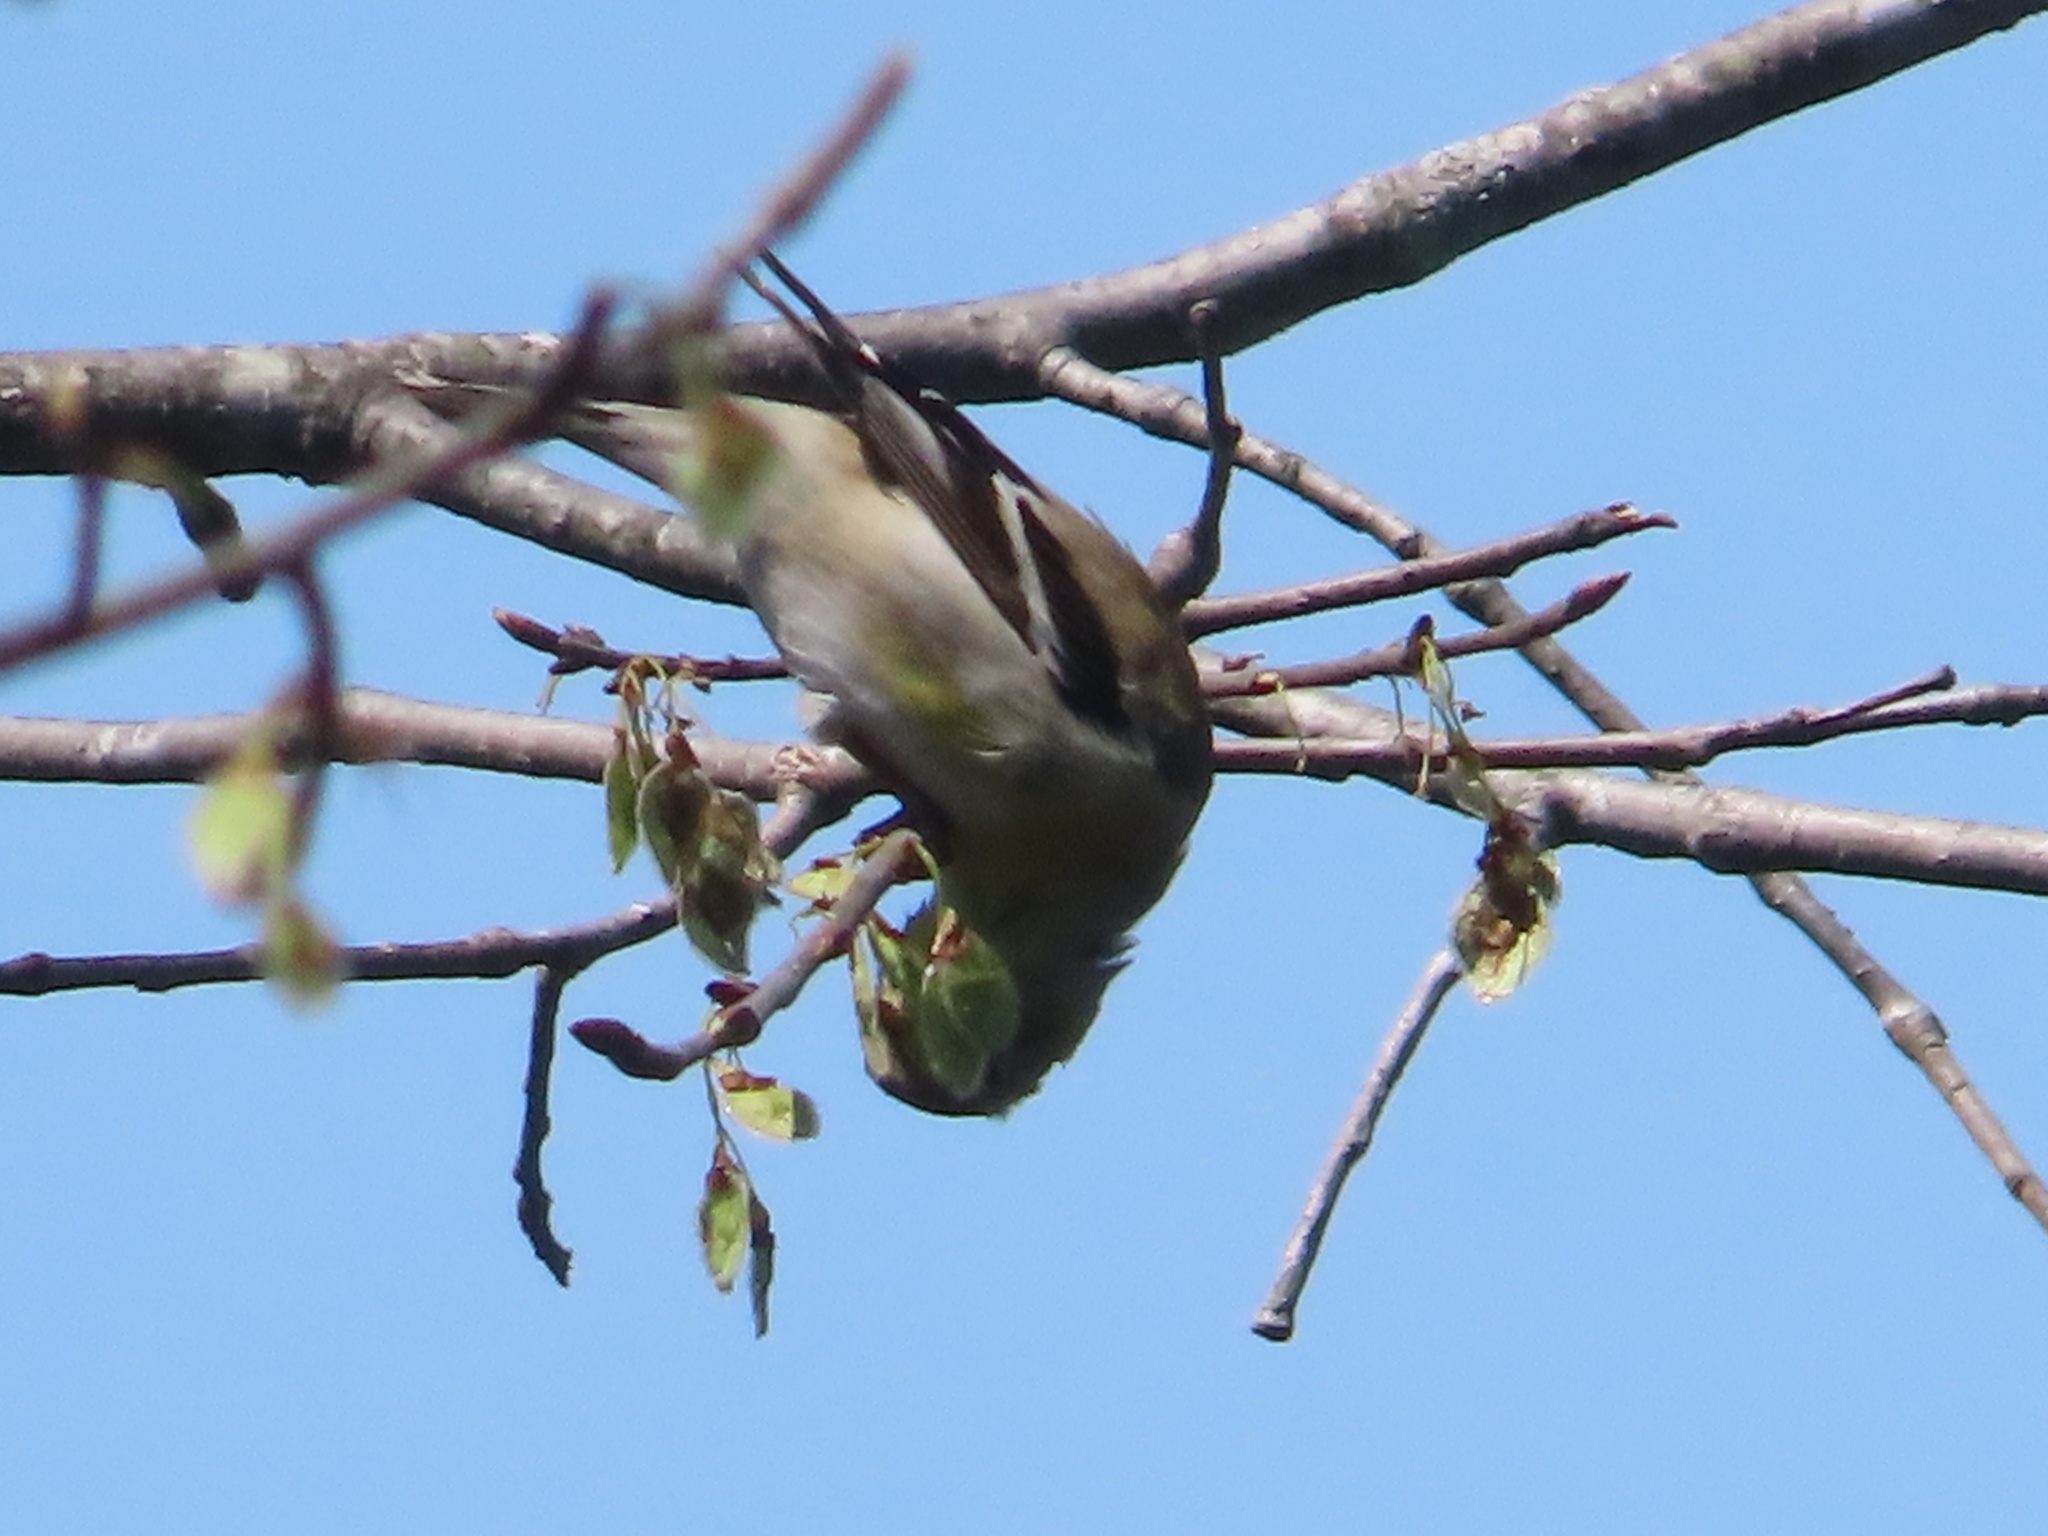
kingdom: Animalia
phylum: Chordata
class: Aves
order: Passeriformes
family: Fringillidae
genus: Spinus
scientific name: Spinus tristis
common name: American goldfinch
